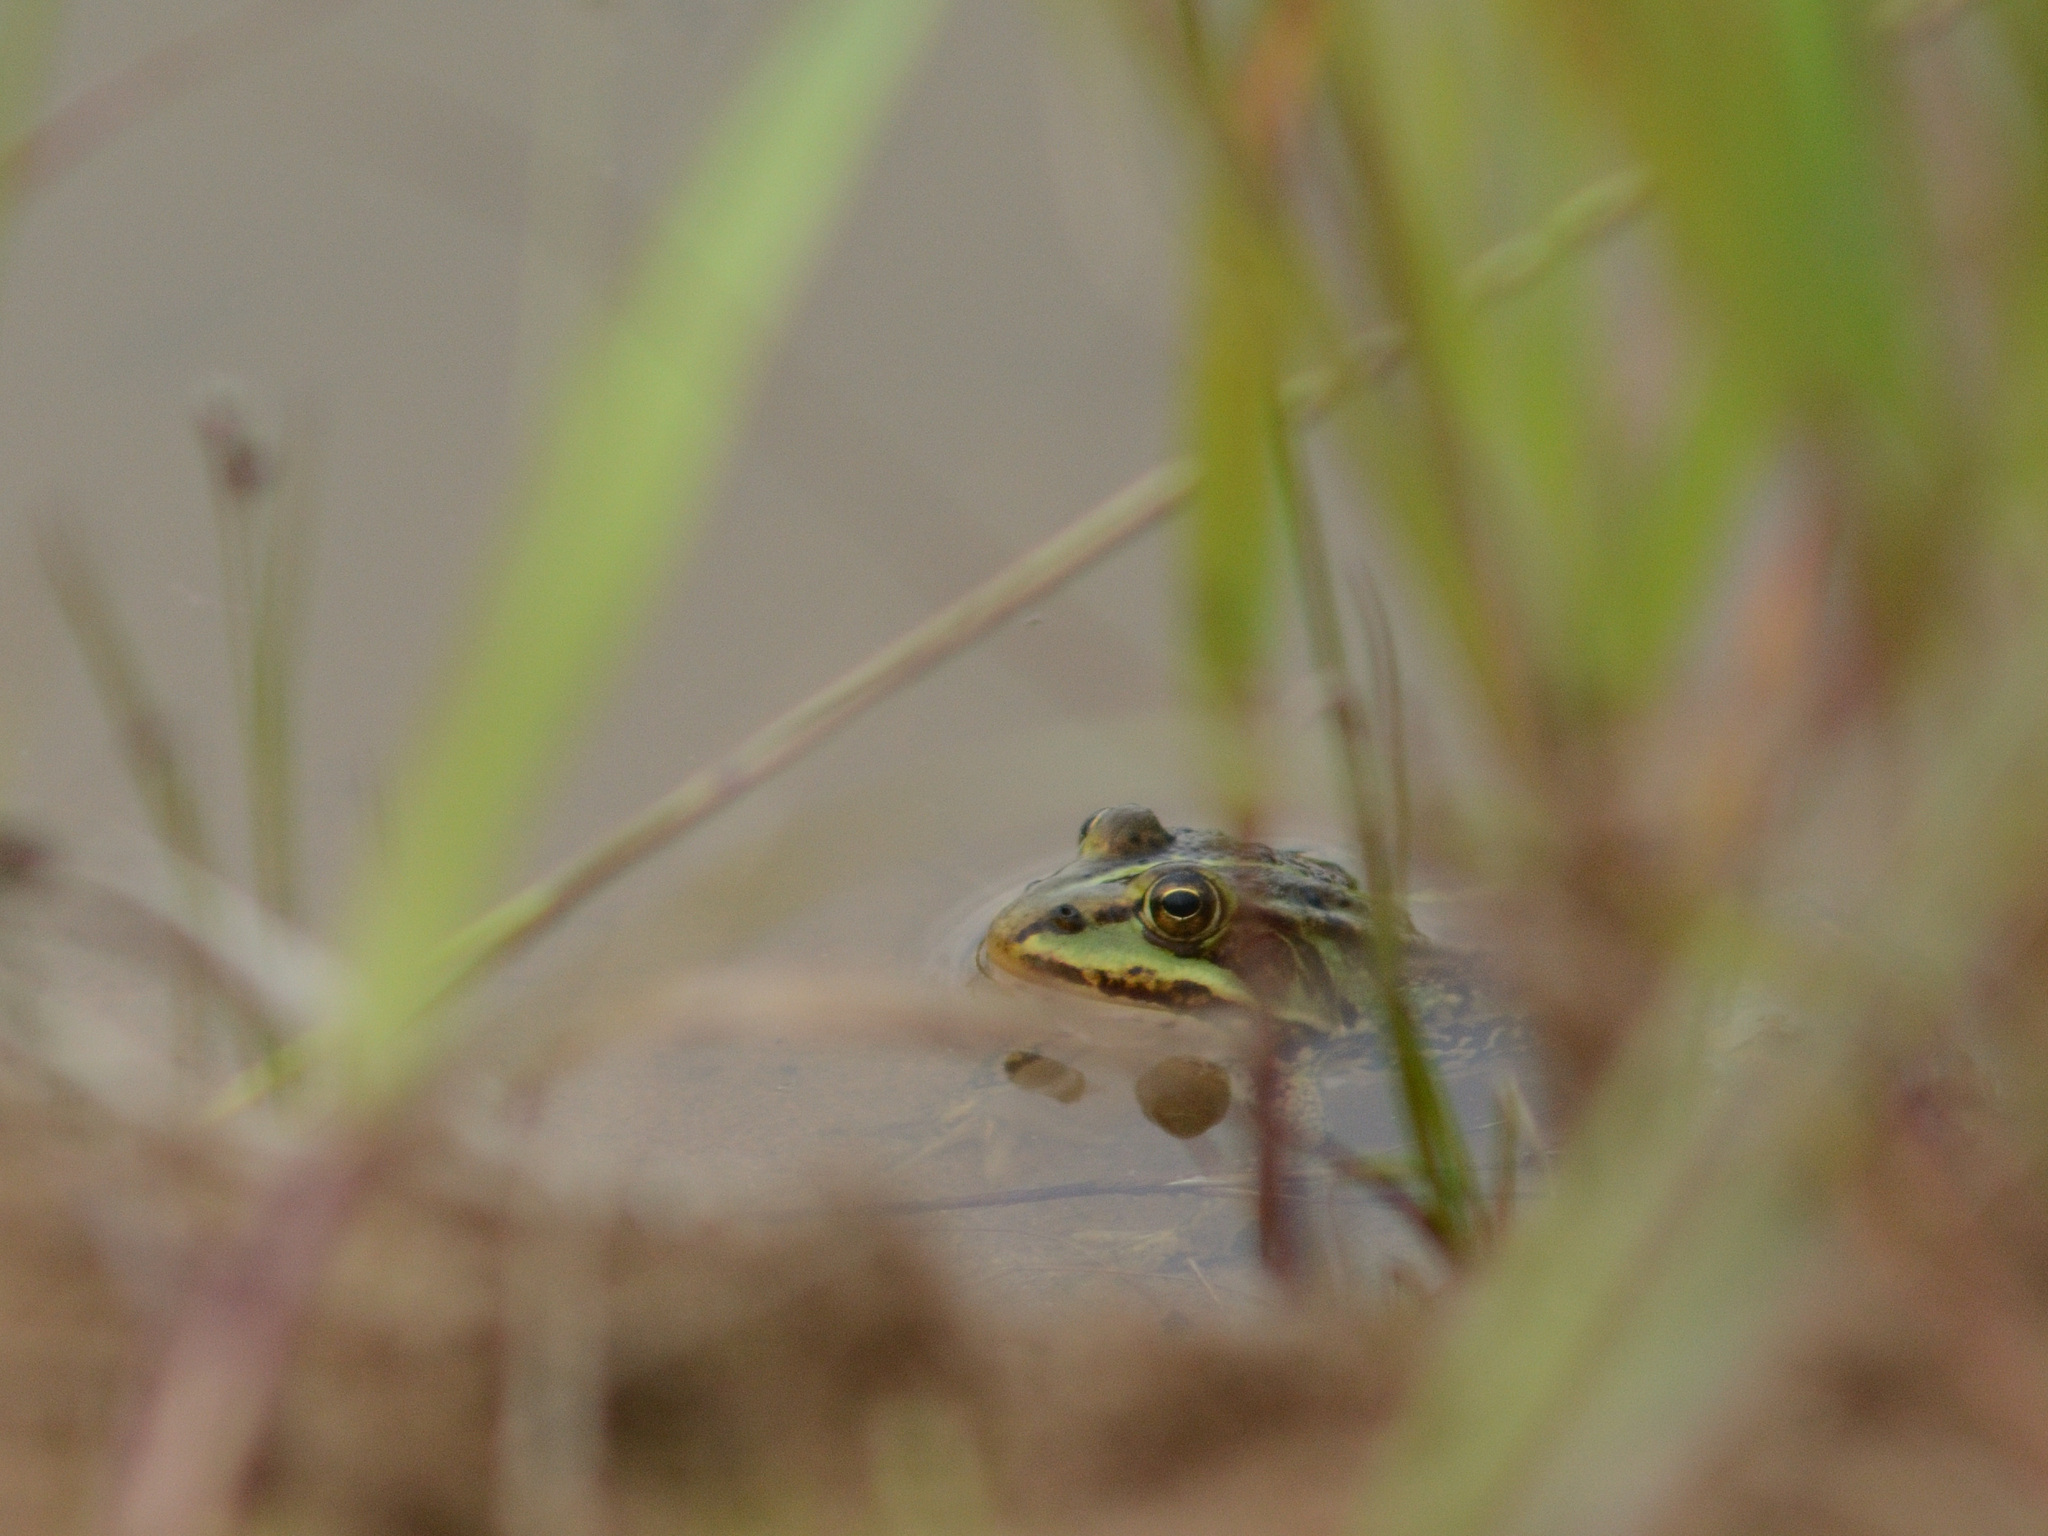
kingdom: Animalia
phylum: Chordata
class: Amphibia
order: Anura
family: Ranidae
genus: Pelophylax
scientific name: Pelophylax lessonae
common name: Pool frog
